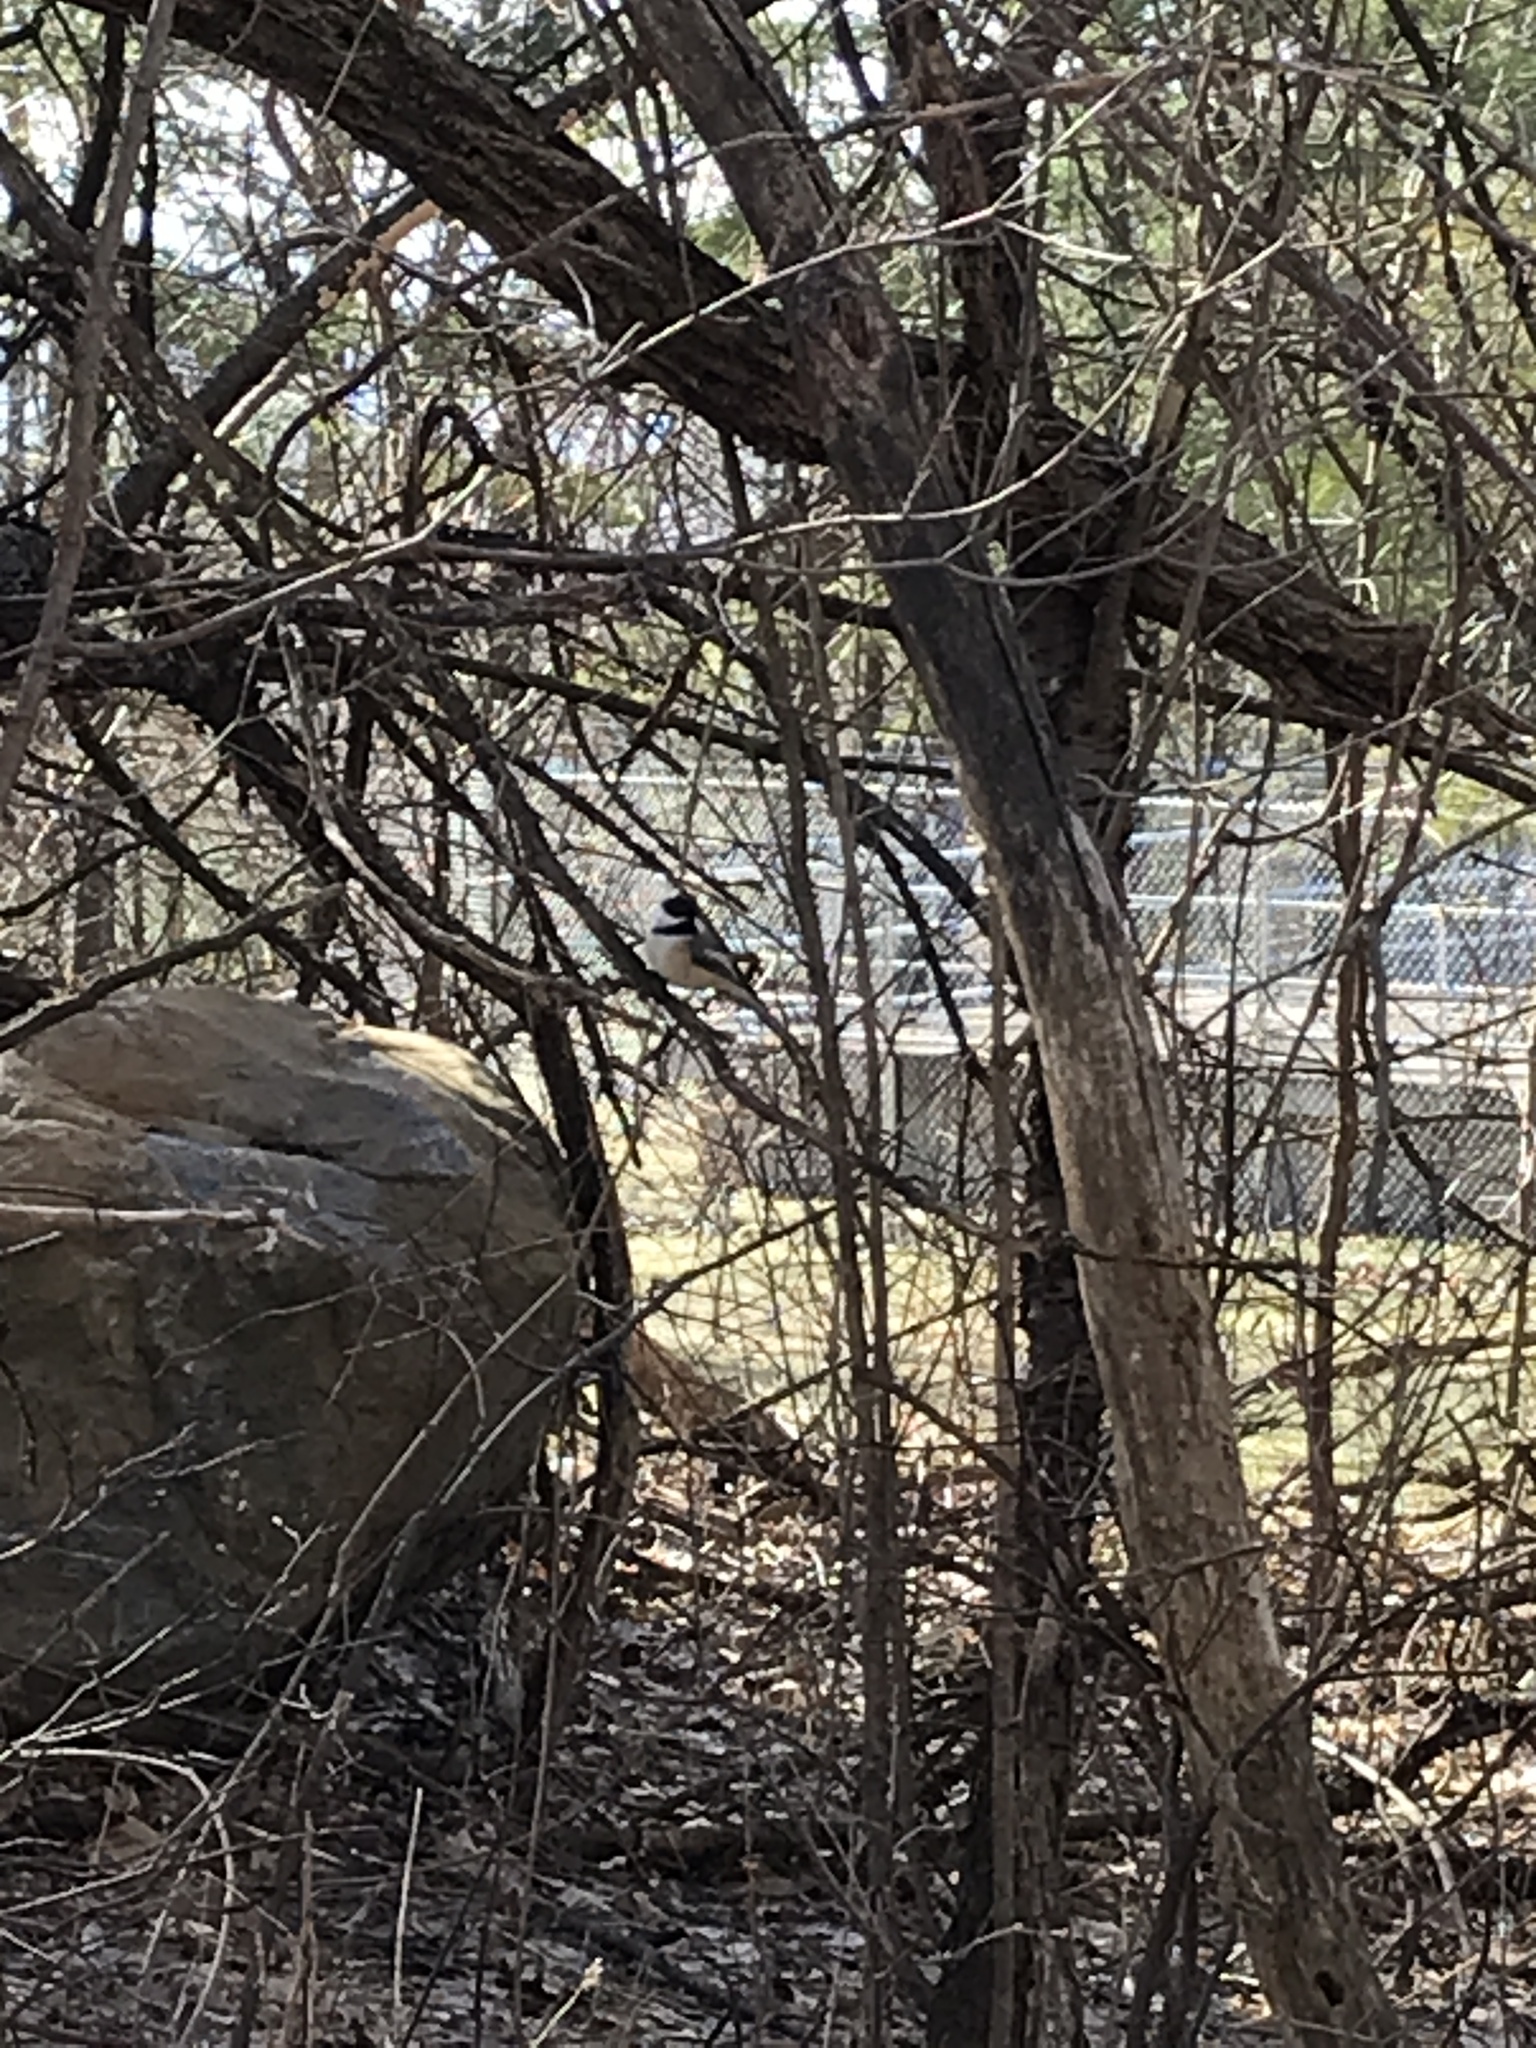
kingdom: Animalia
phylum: Chordata
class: Aves
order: Passeriformes
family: Paridae
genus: Poecile
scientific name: Poecile atricapillus
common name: Black-capped chickadee
